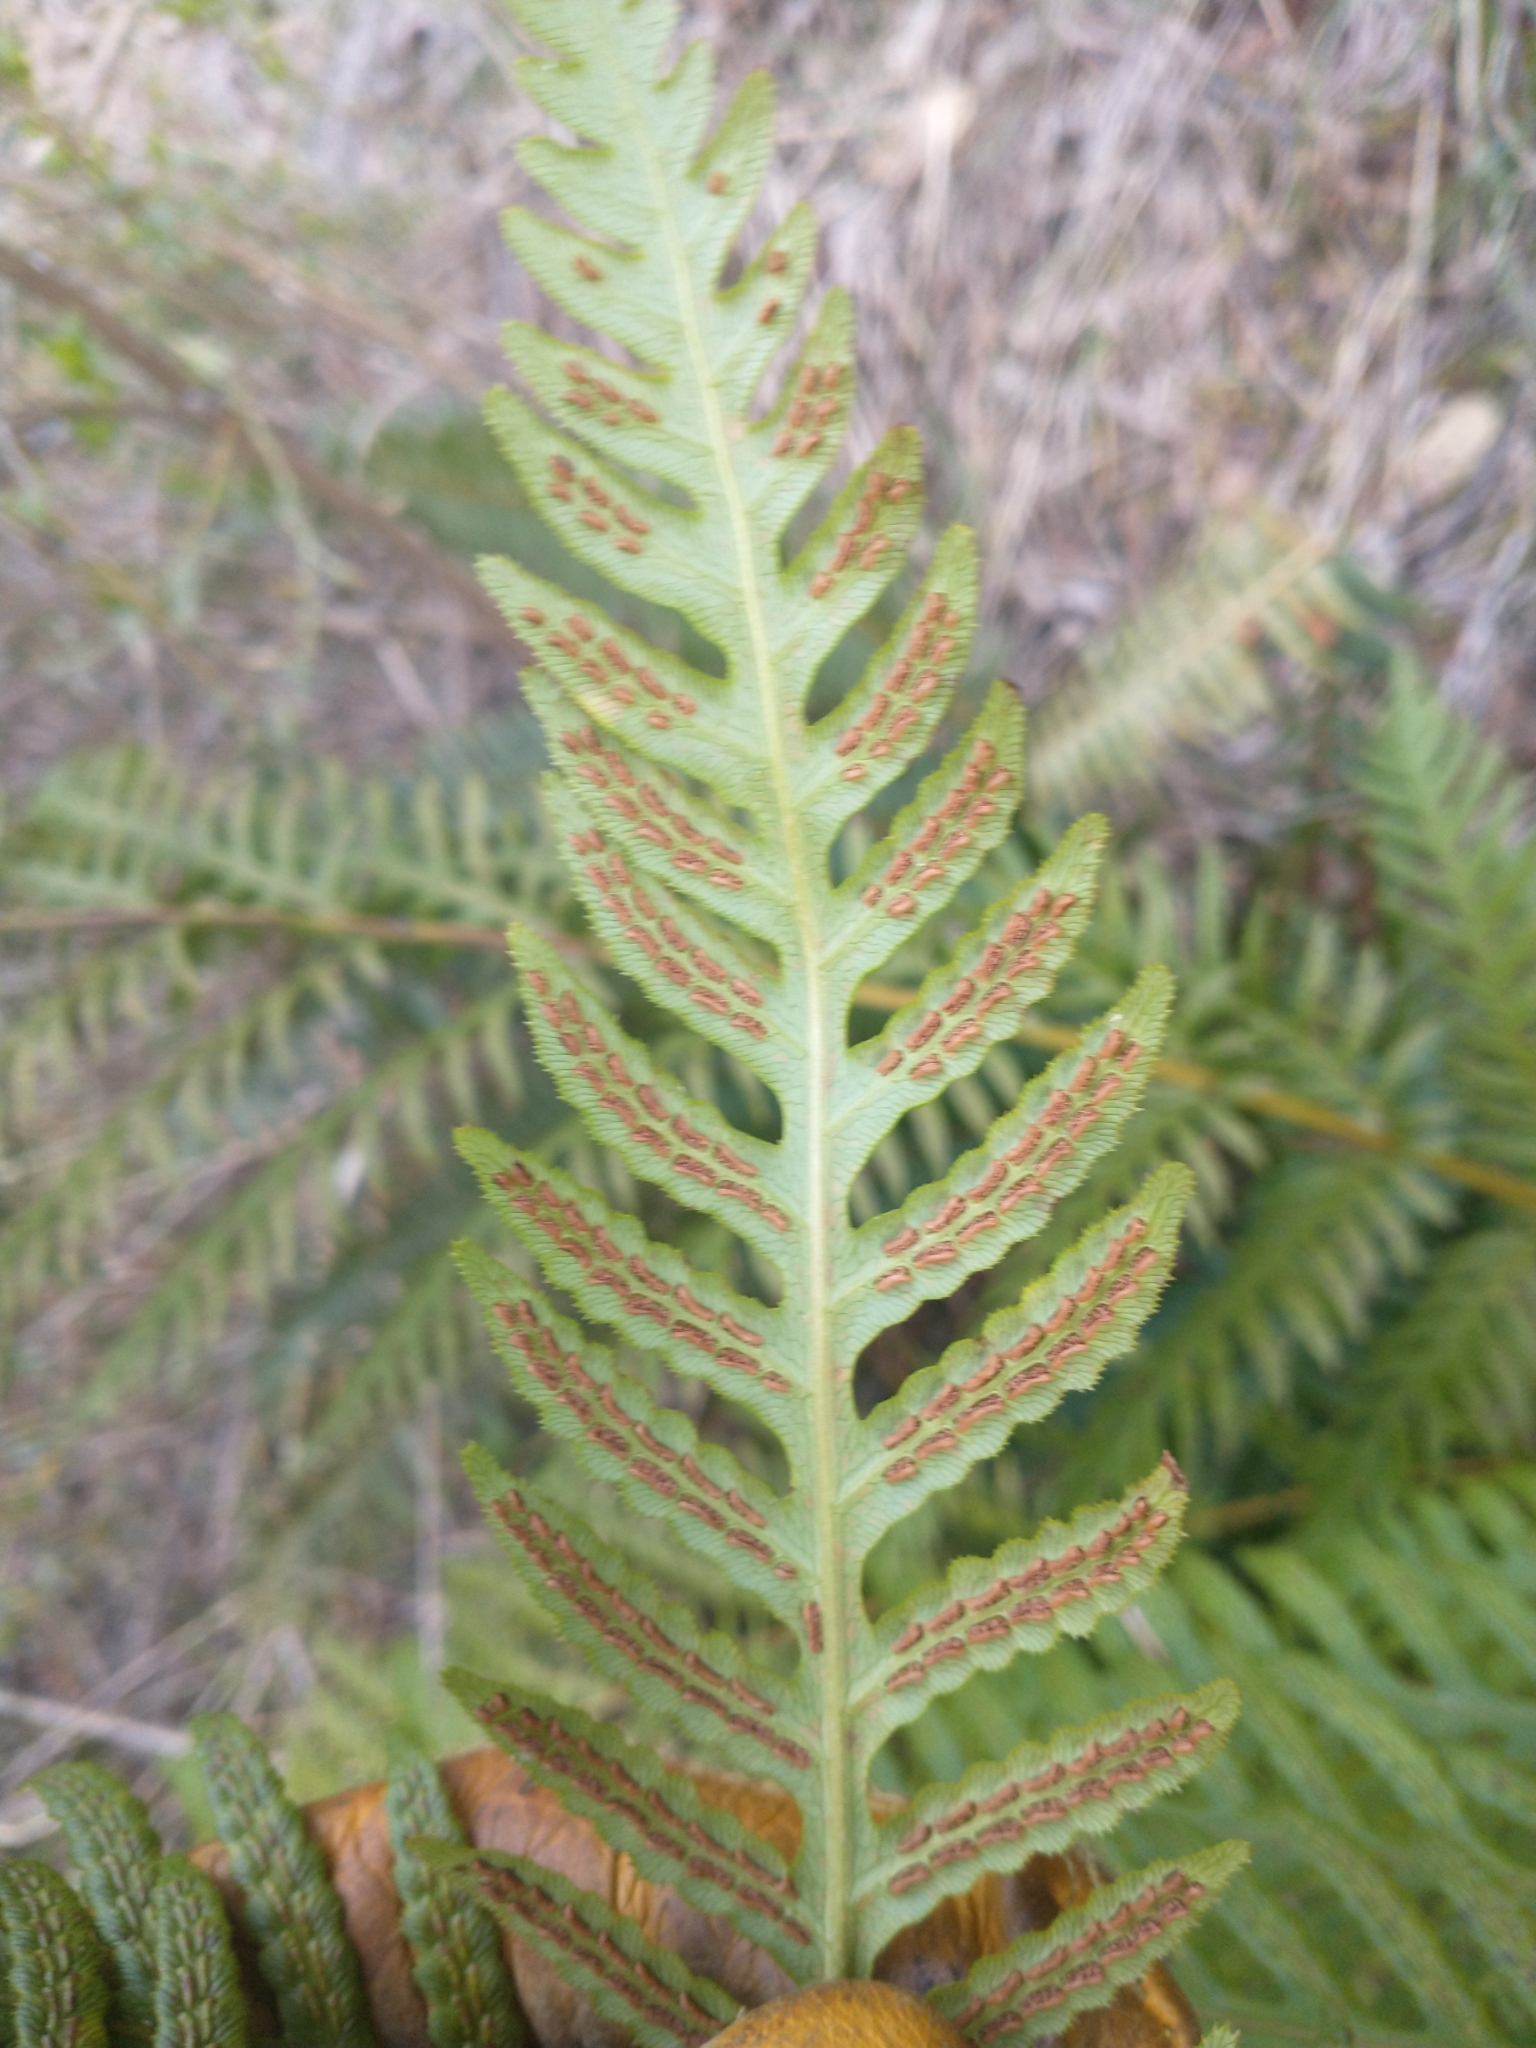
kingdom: Plantae
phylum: Tracheophyta
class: Polypodiopsida
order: Polypodiales
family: Blechnaceae
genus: Woodwardia
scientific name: Woodwardia fimbriata
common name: Giant chain fern
